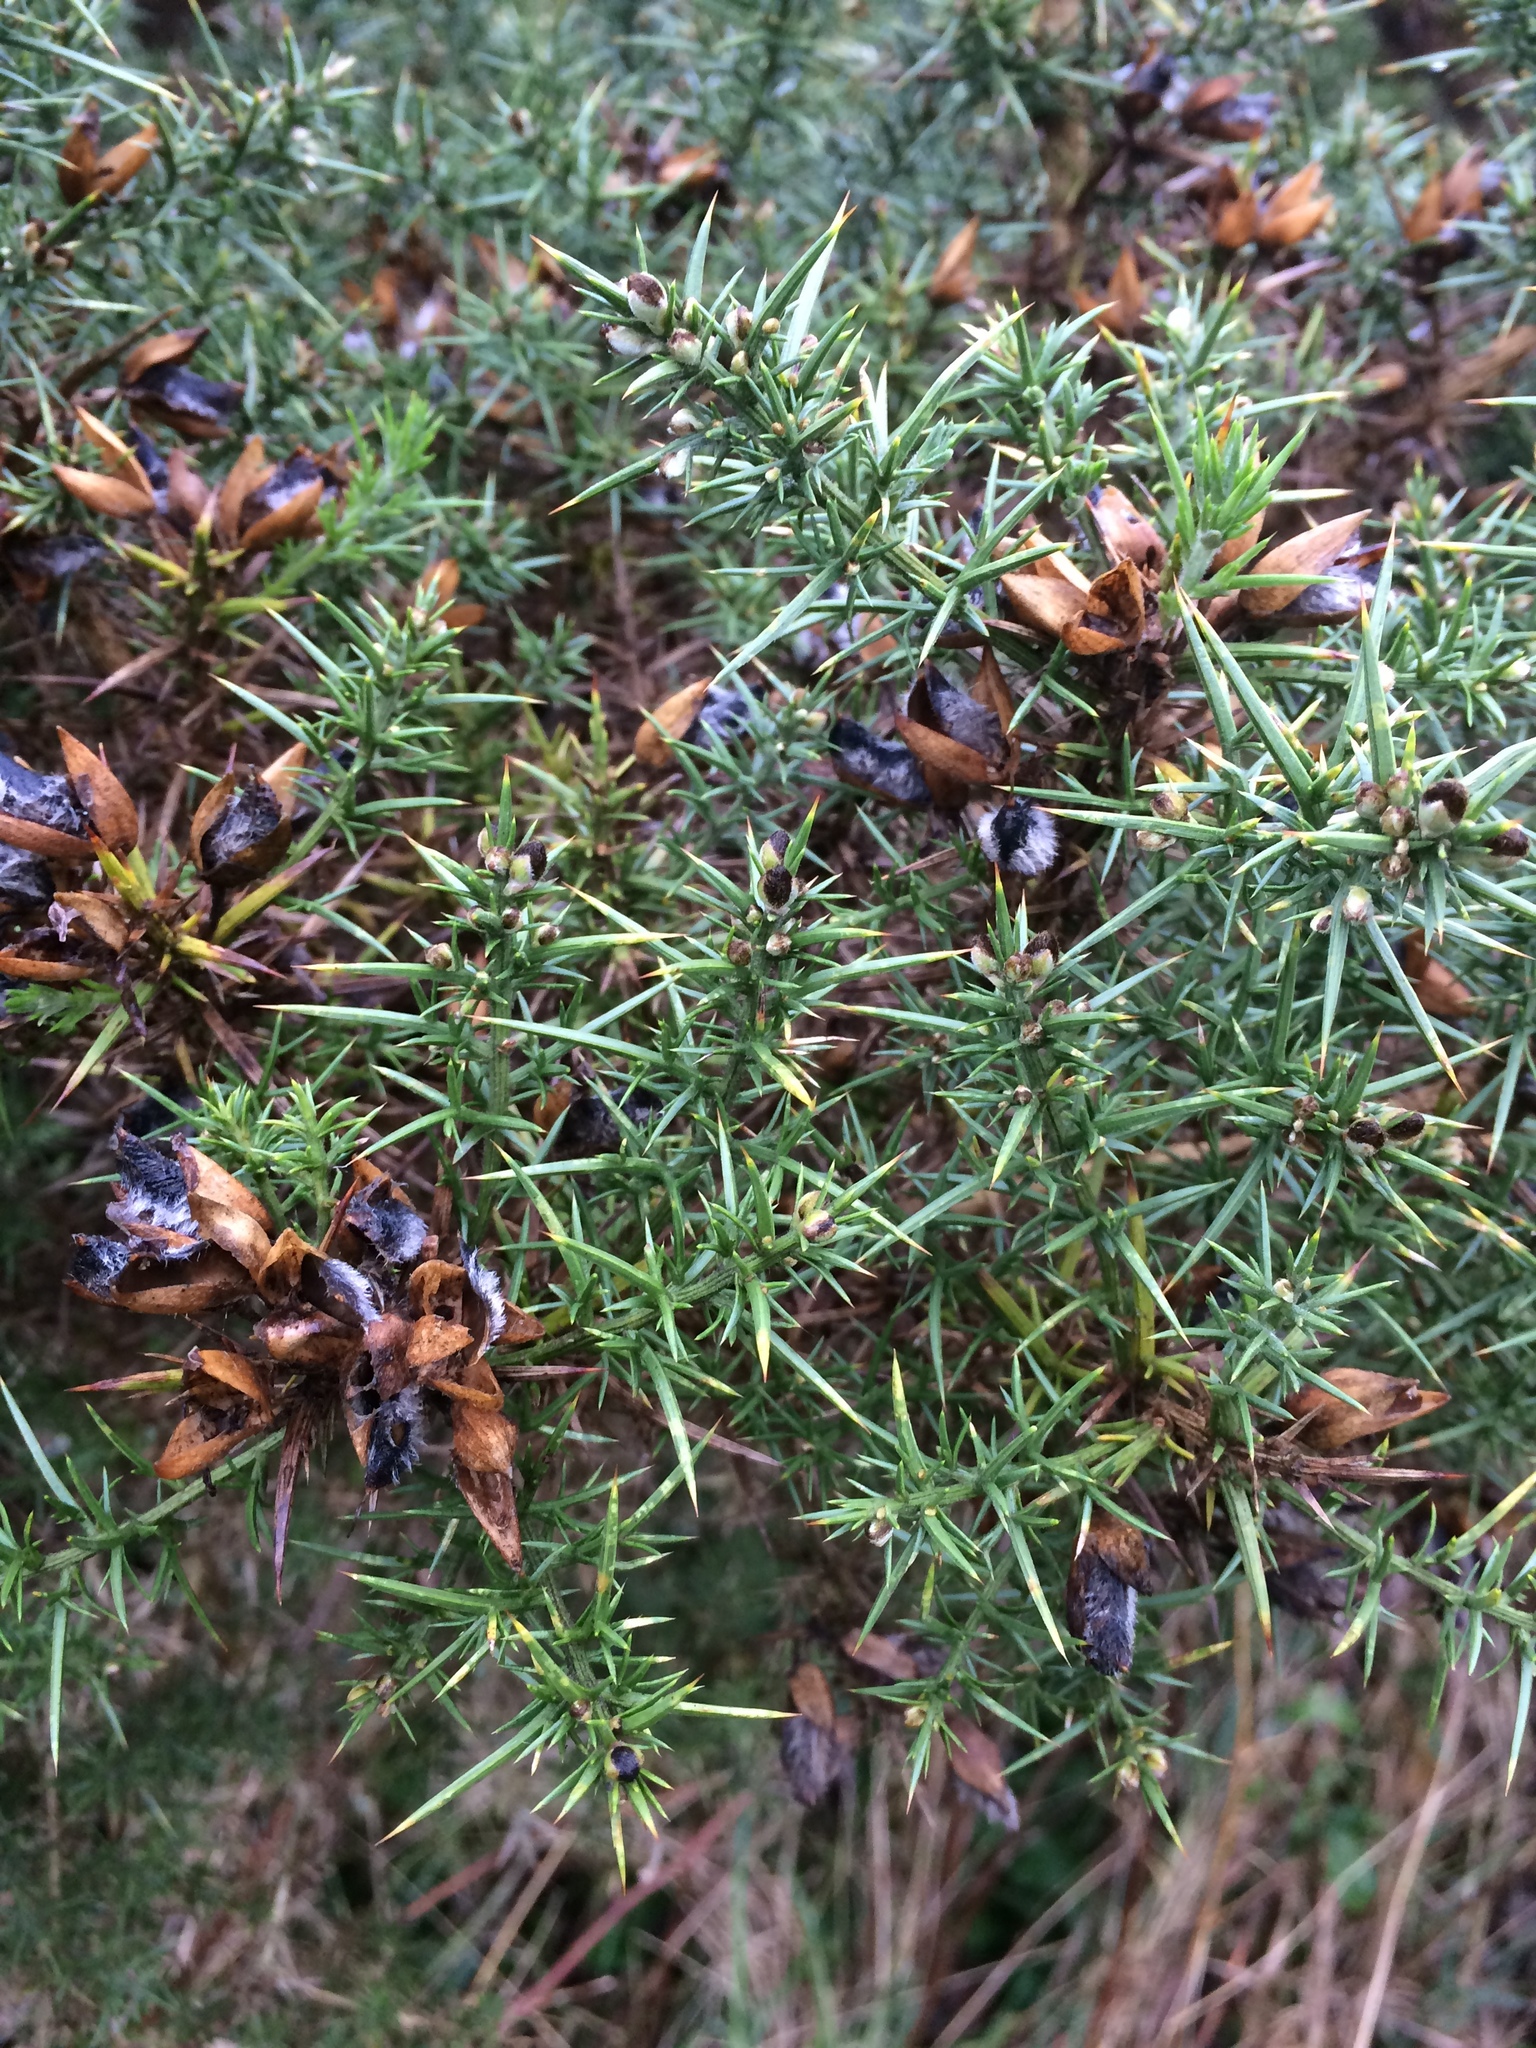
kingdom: Plantae
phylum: Tracheophyta
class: Magnoliopsida
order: Fabales
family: Fabaceae
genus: Ulex
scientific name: Ulex europaeus
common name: Common gorse
